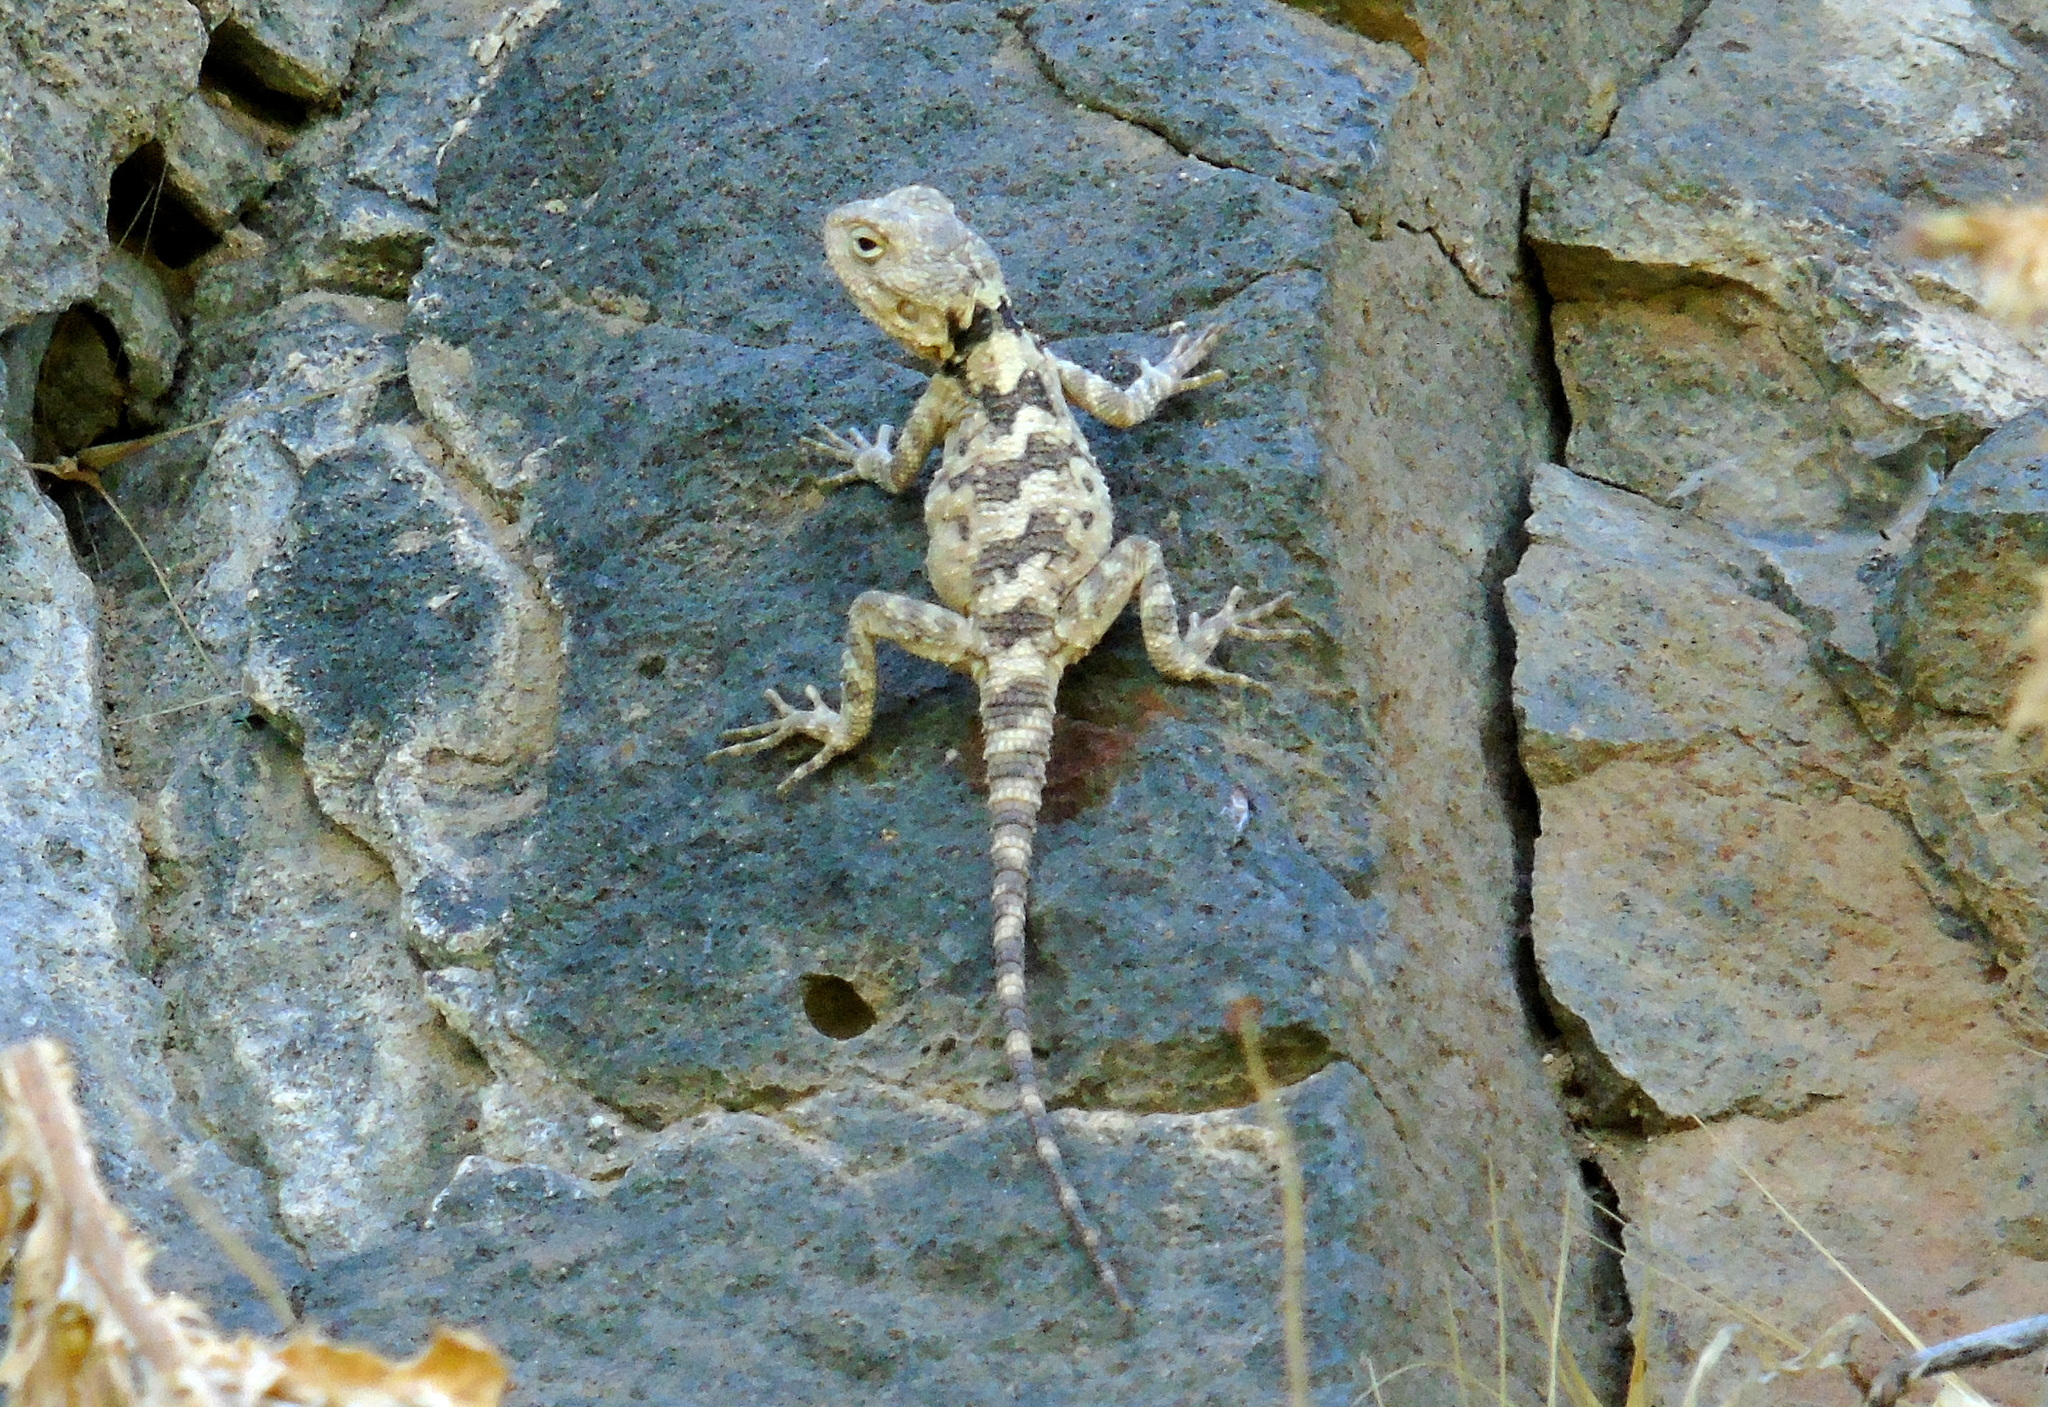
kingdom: Animalia
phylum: Chordata
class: Squamata
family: Agamidae
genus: Stellagama
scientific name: Stellagama stellio
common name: Starred agama
